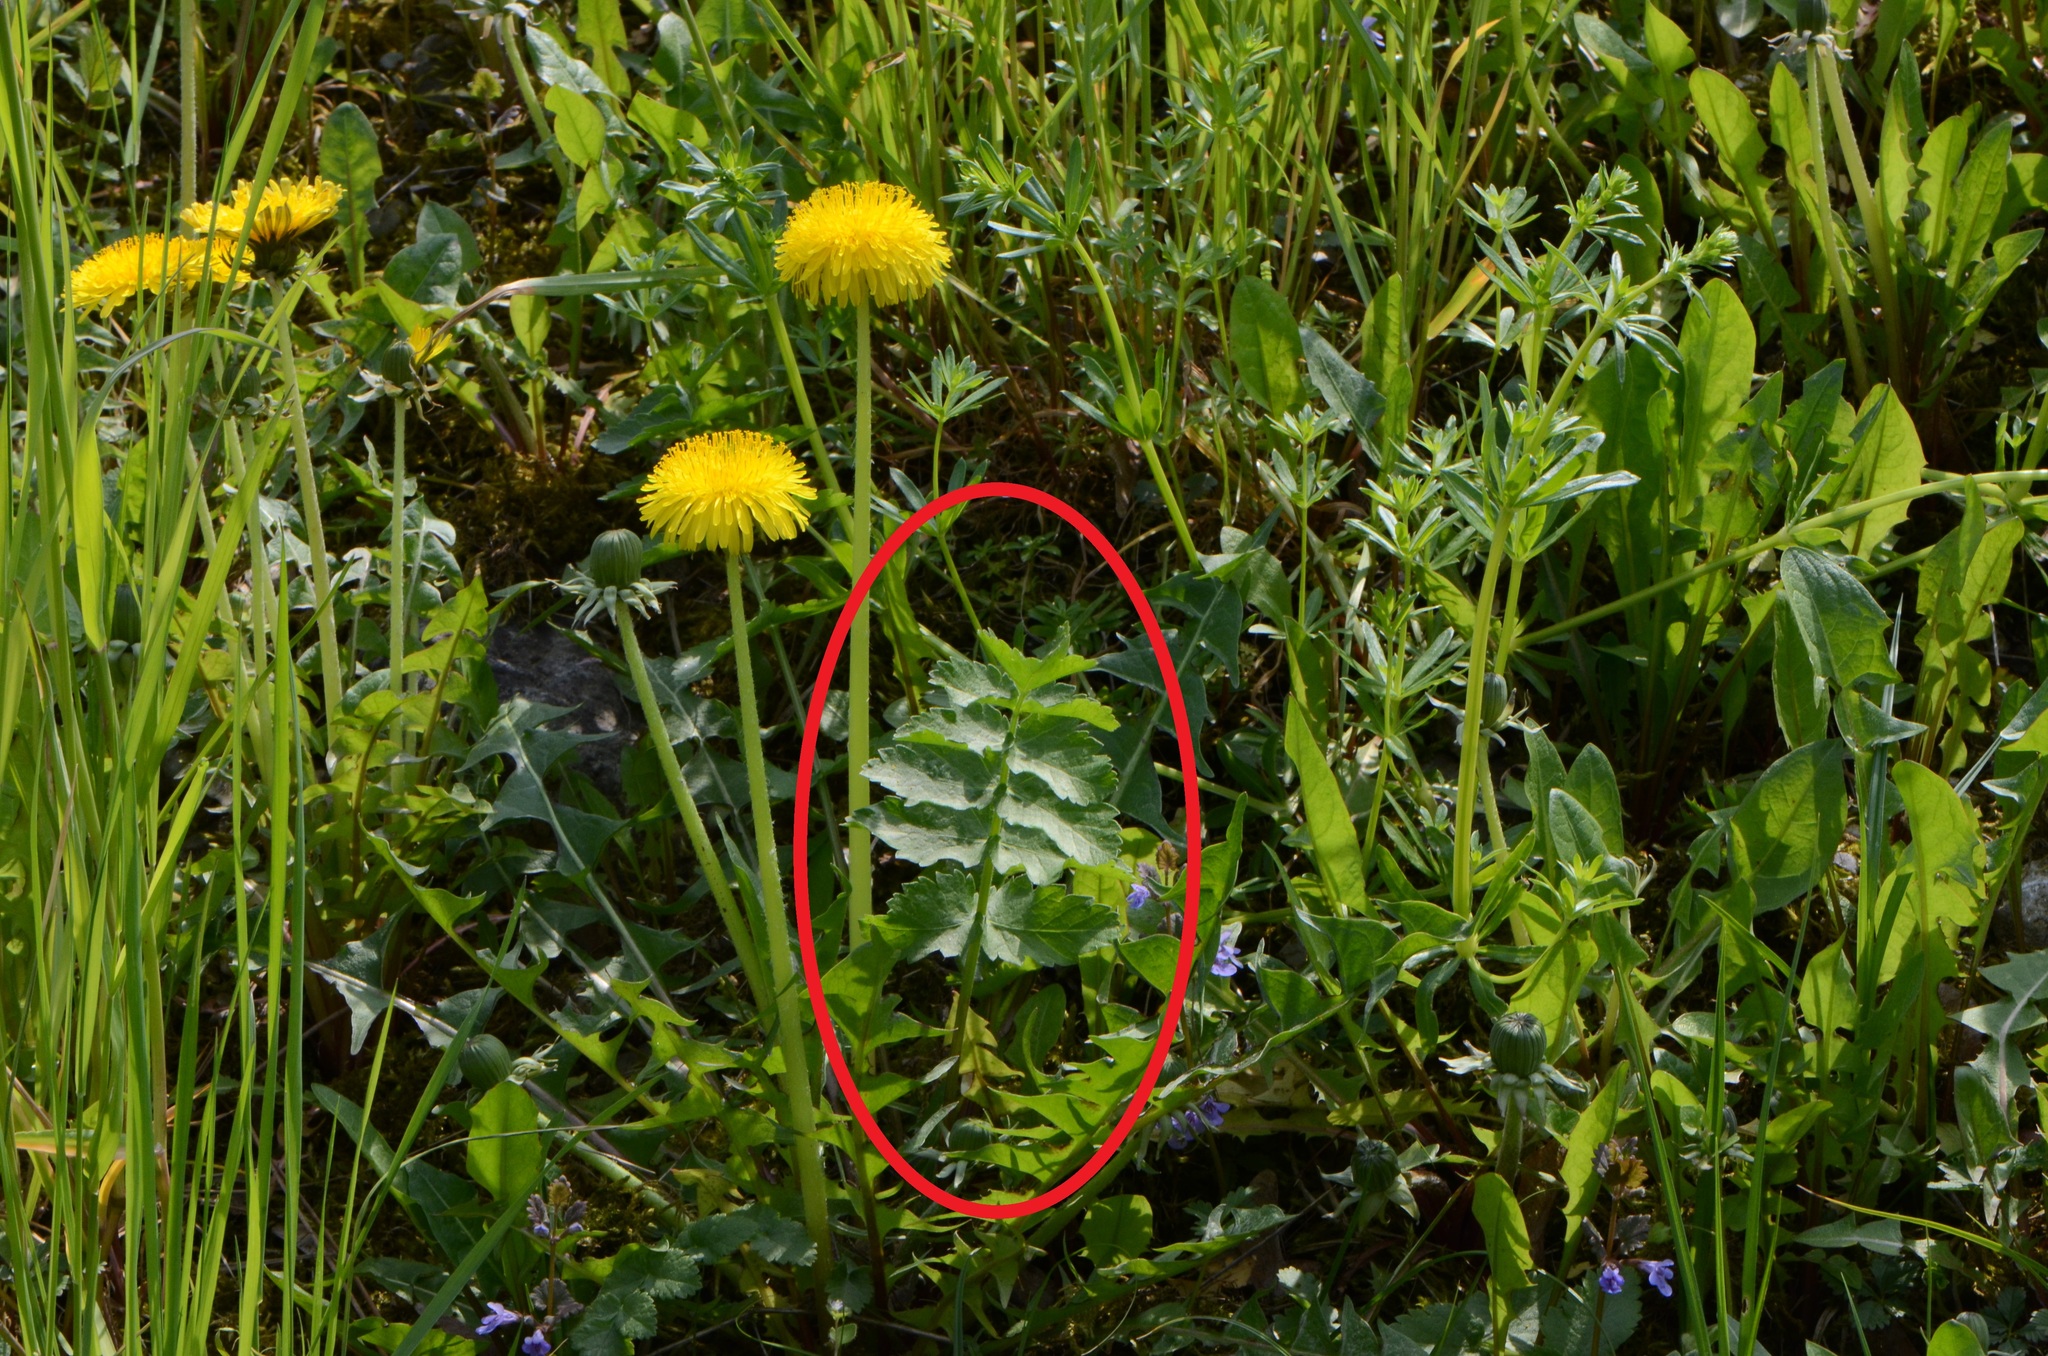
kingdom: Plantae
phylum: Tracheophyta
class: Magnoliopsida
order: Apiales
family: Apiaceae
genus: Pastinaca
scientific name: Pastinaca sativa
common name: Wild parsnip
